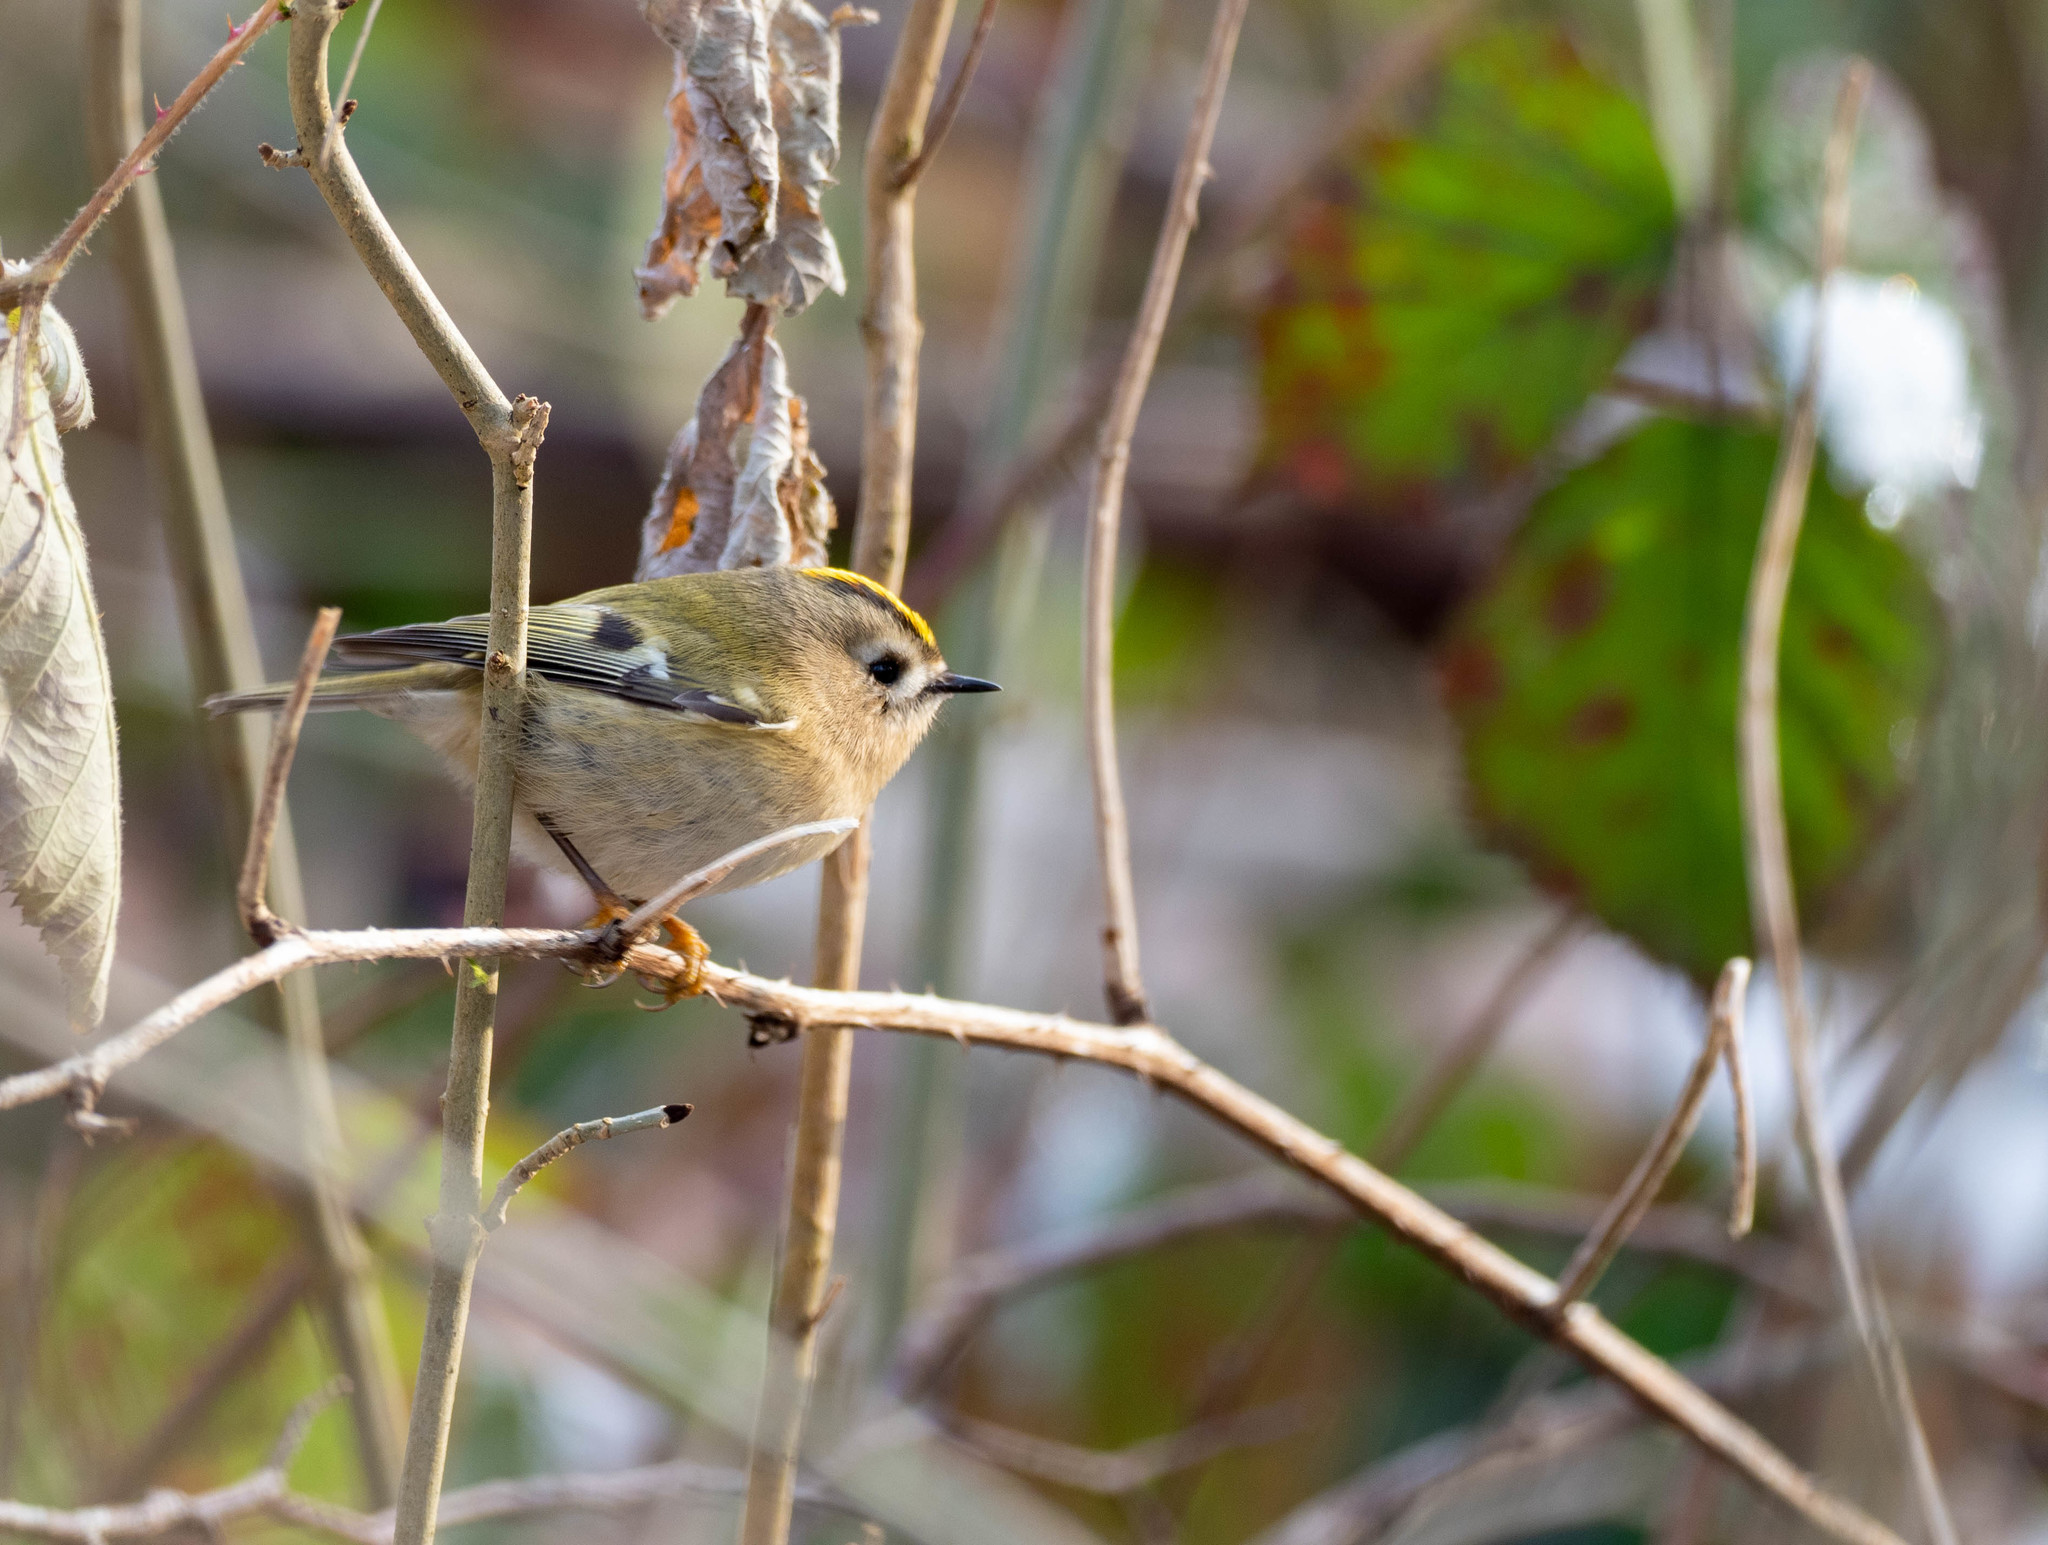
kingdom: Animalia
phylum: Chordata
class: Aves
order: Passeriformes
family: Regulidae
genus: Regulus
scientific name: Regulus regulus
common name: Goldcrest
